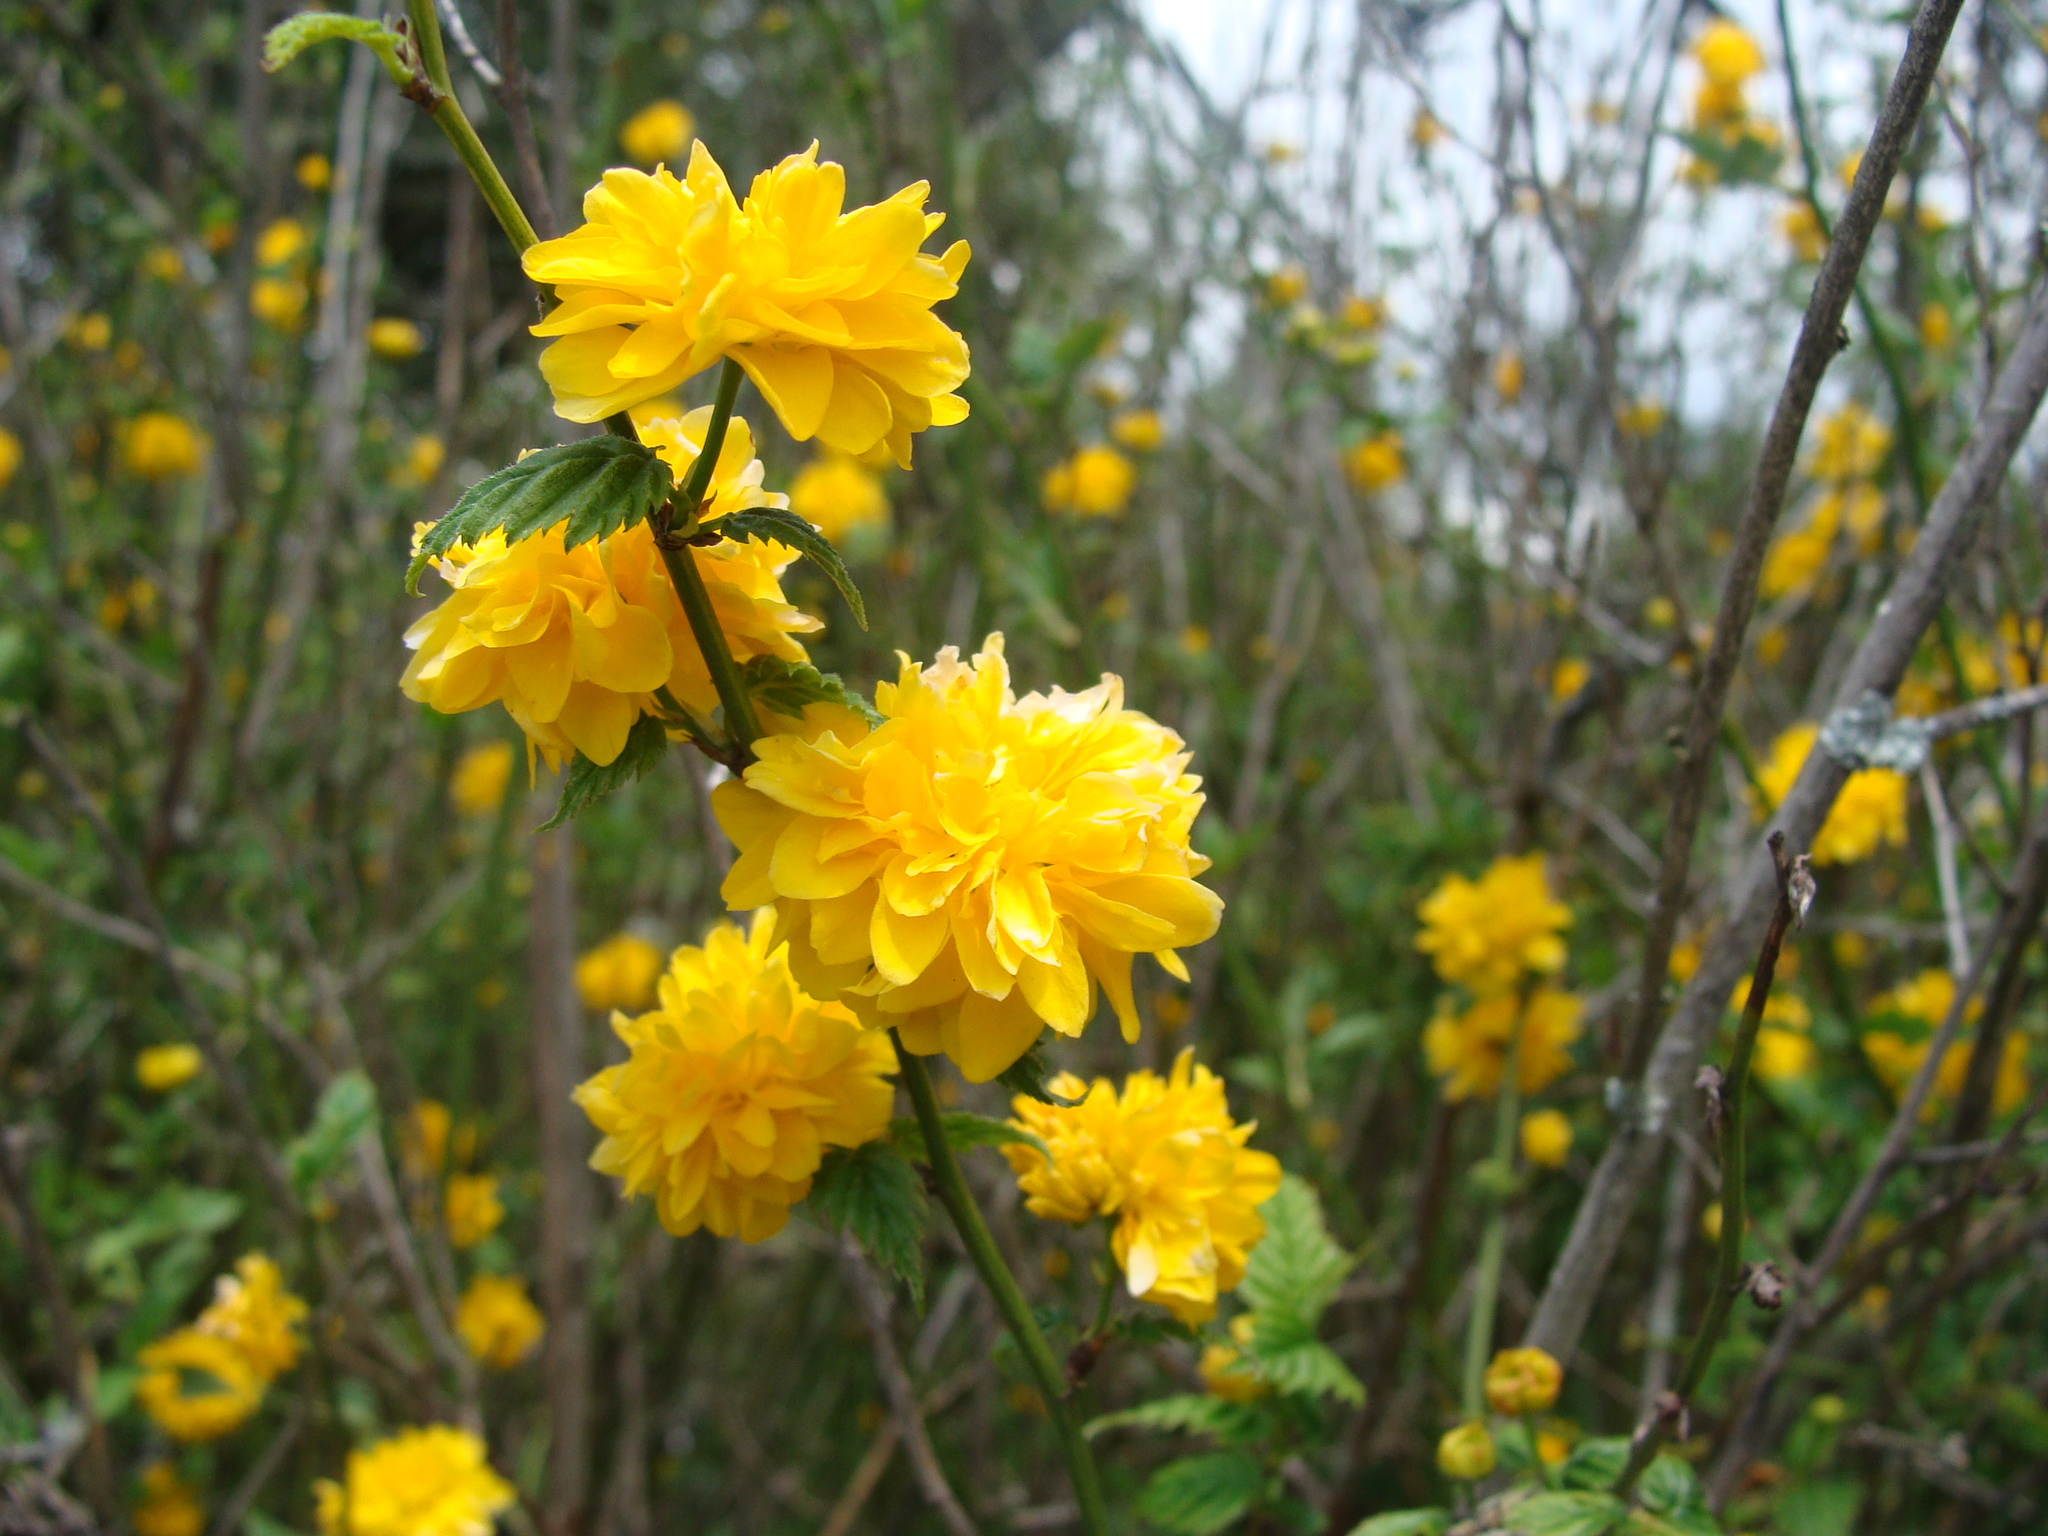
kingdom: Plantae
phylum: Tracheophyta
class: Magnoliopsida
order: Rosales
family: Rosaceae
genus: Kerria
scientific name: Kerria japonica
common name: Japanese kerria
